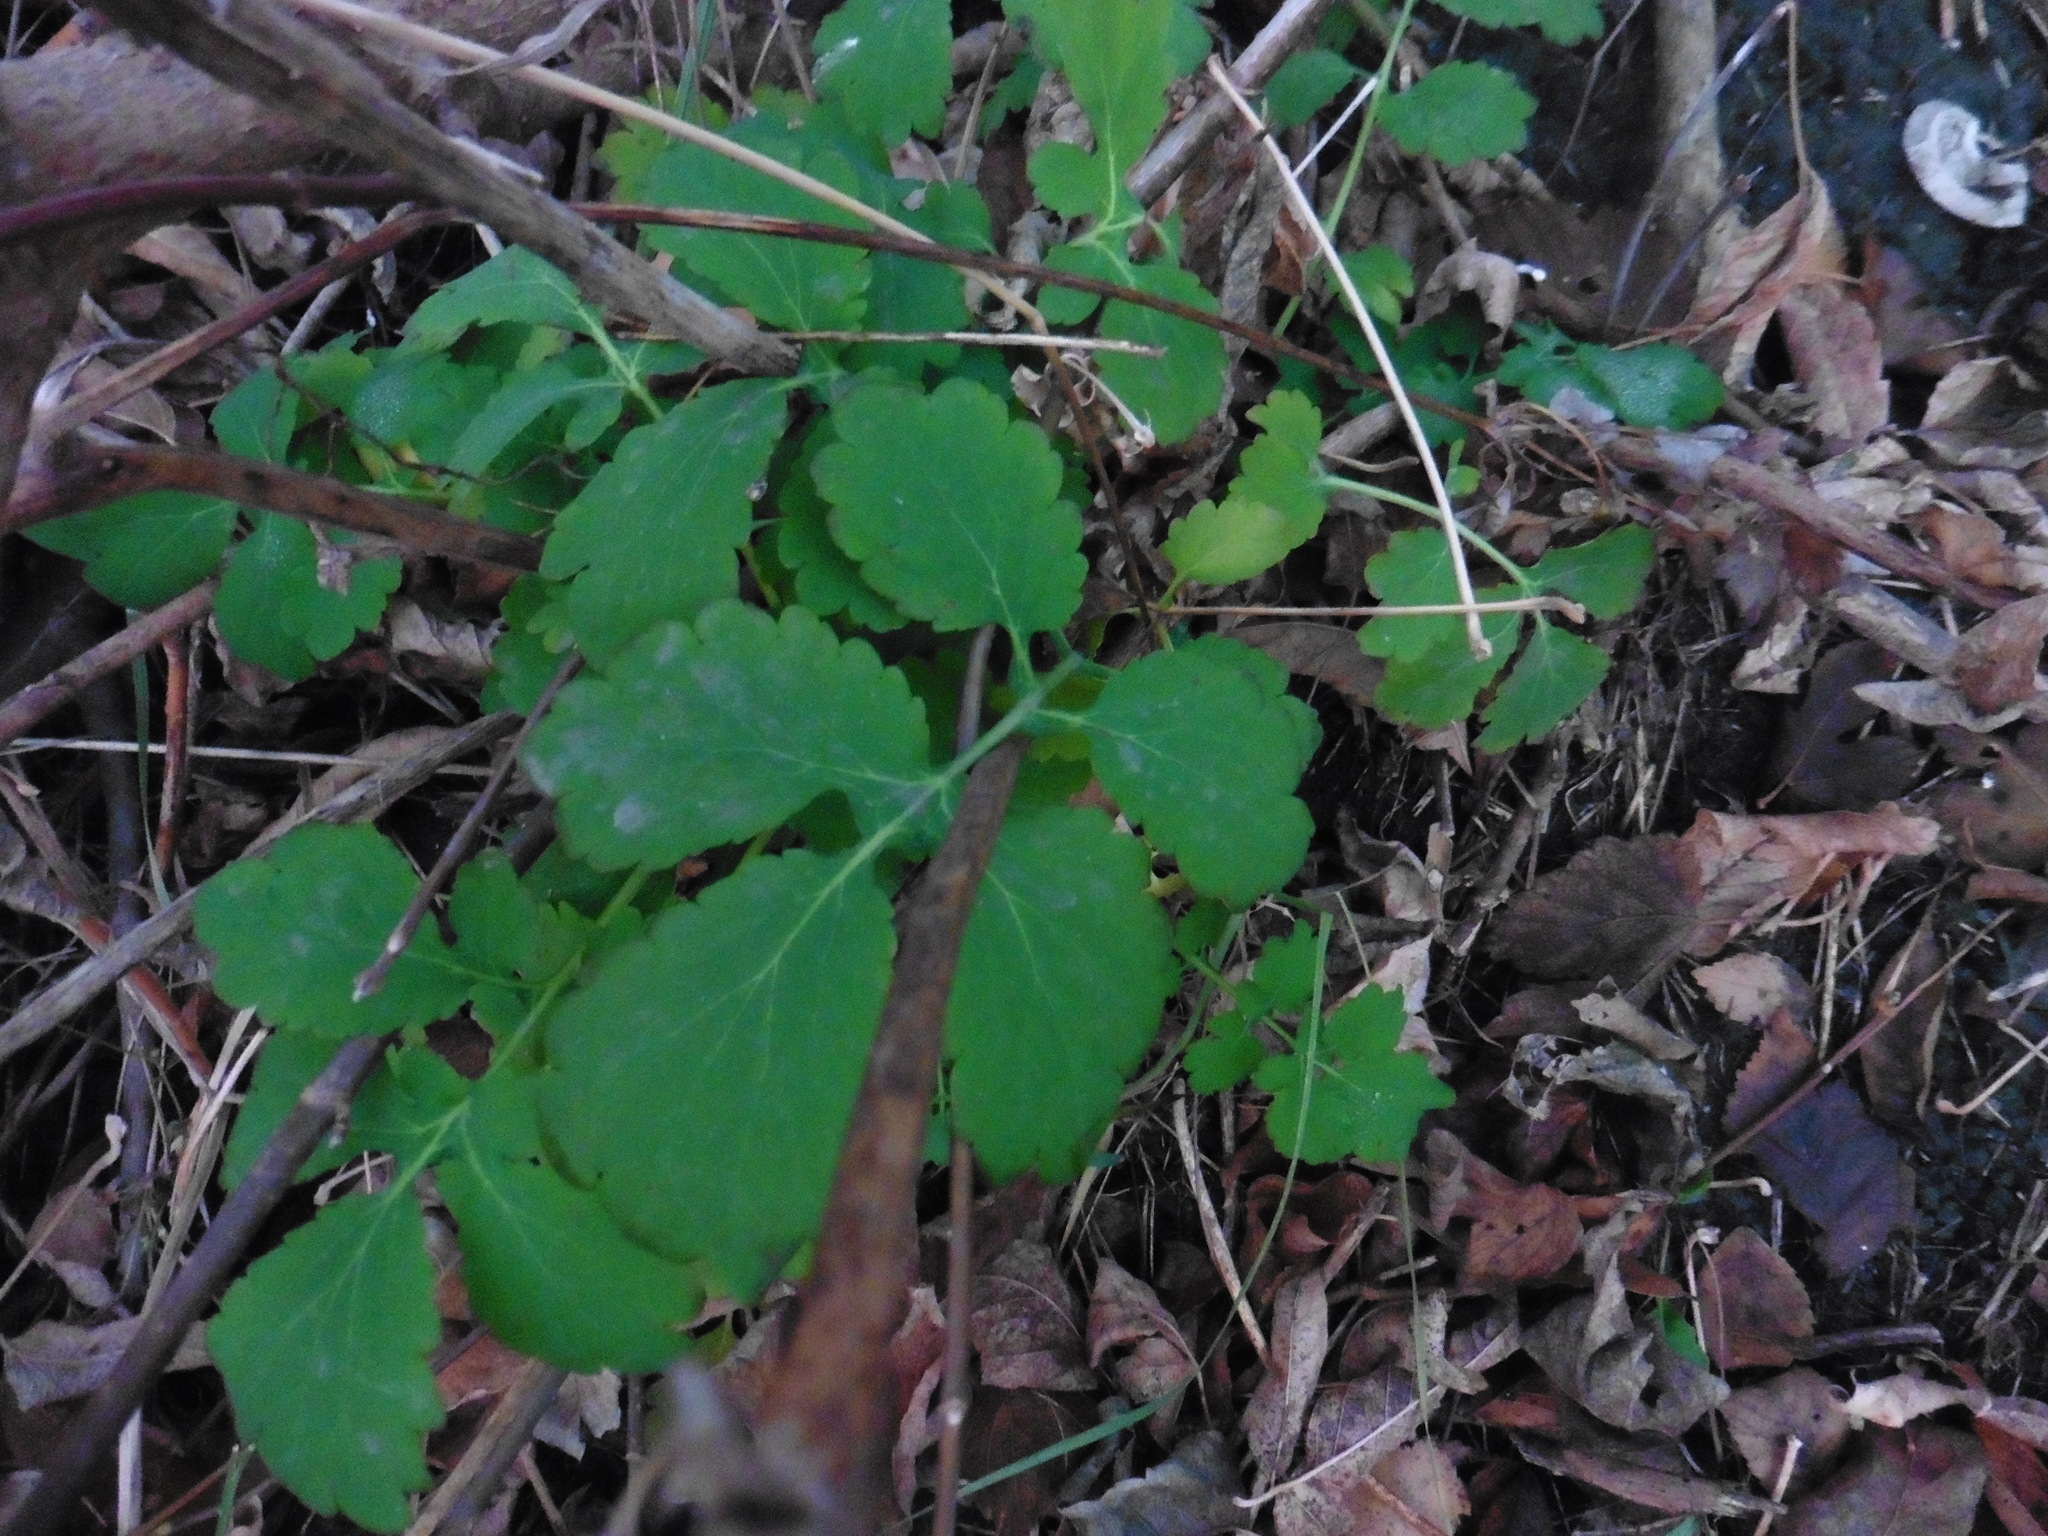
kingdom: Plantae
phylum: Tracheophyta
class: Magnoliopsida
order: Ranunculales
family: Papaveraceae
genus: Chelidonium
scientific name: Chelidonium majus
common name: Greater celandine
